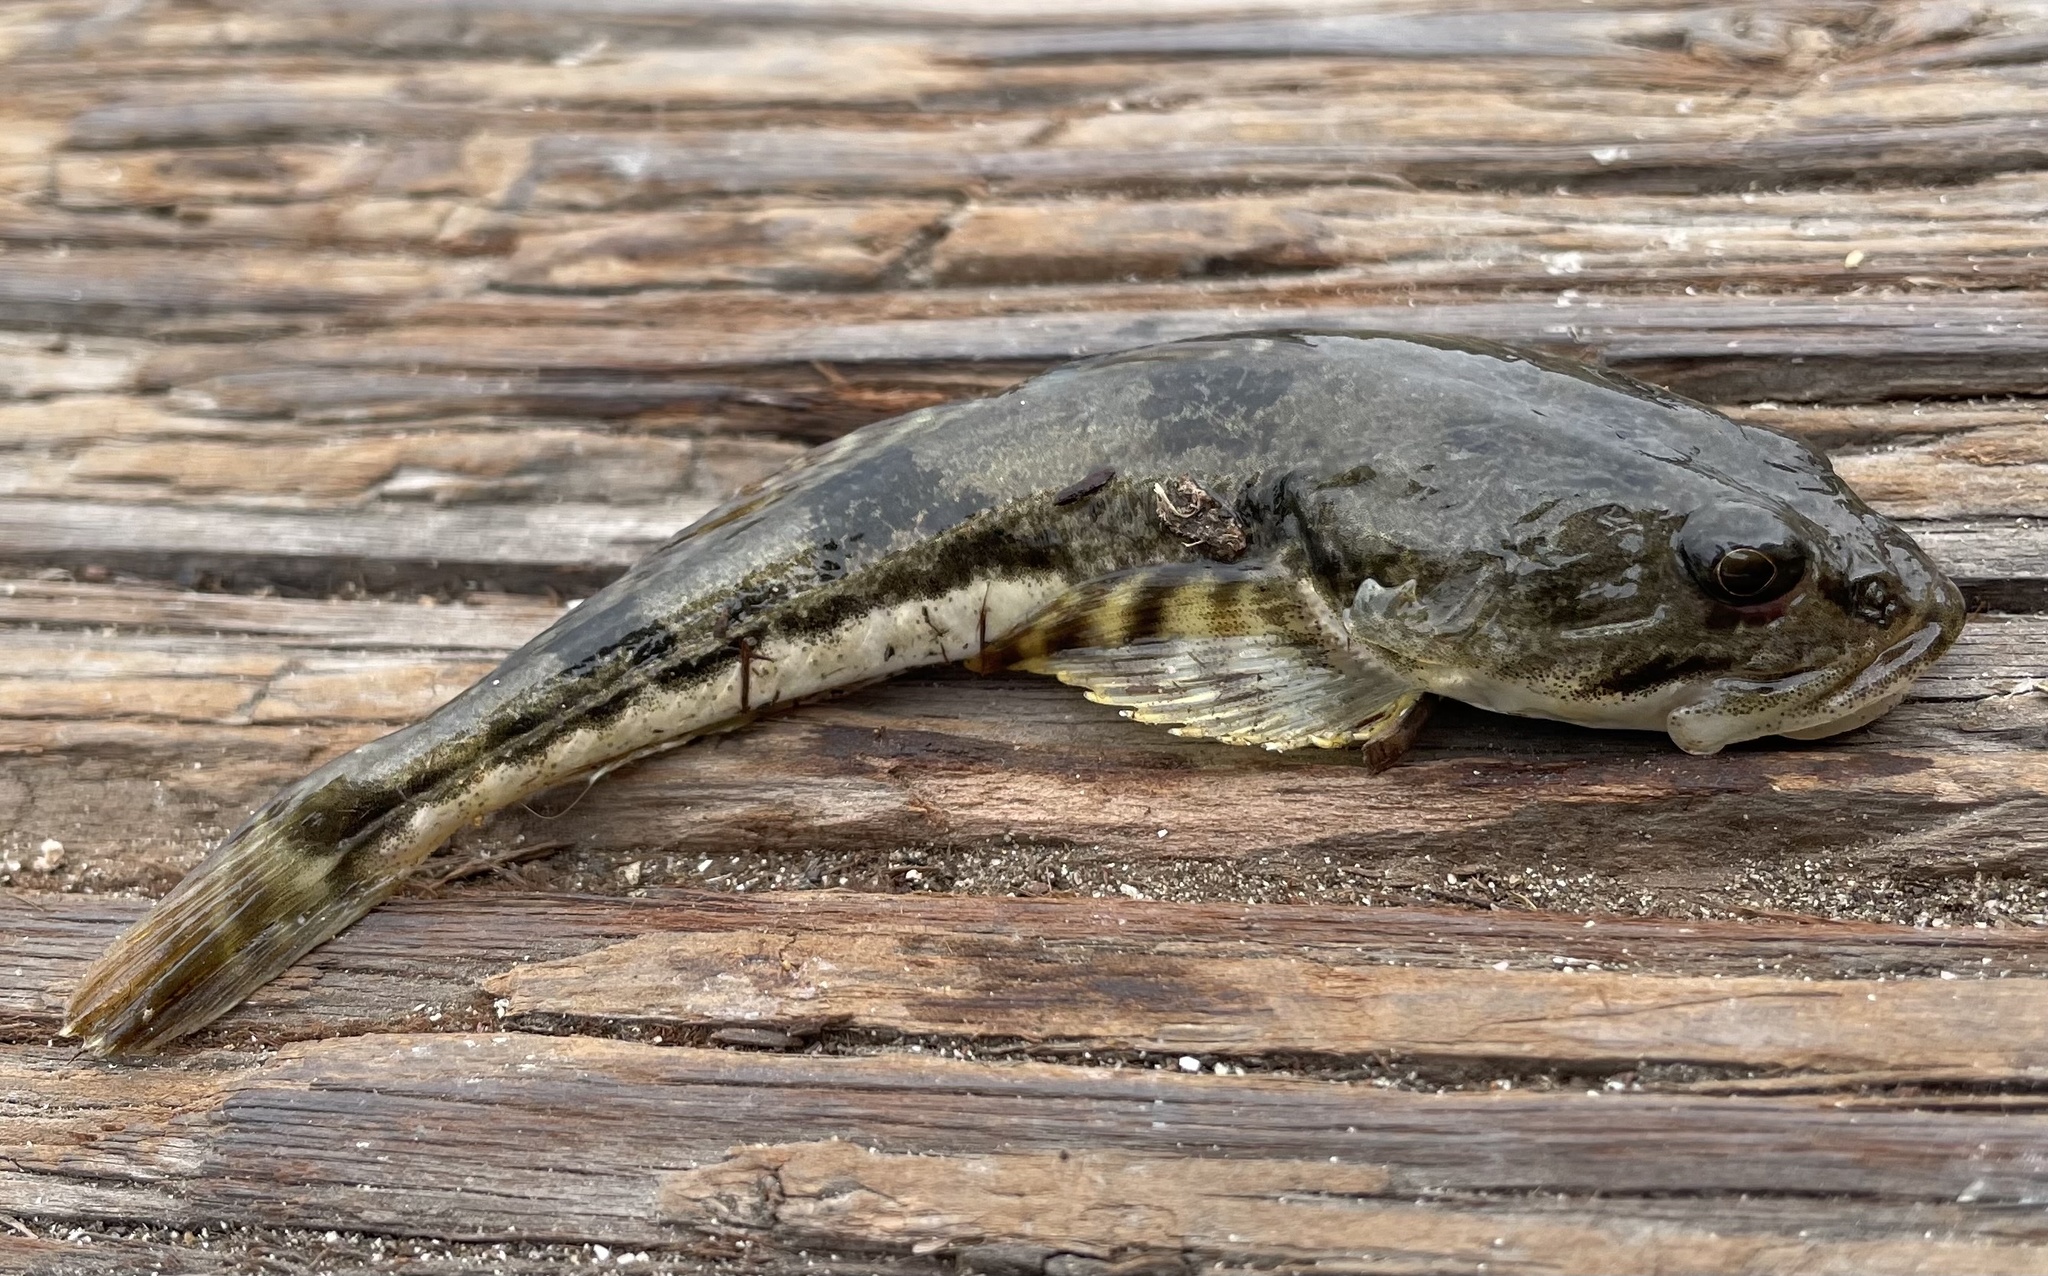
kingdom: Animalia
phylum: Chordata
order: Scorpaeniformes
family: Cottidae
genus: Leptocottus
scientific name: Leptocottus armatus
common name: Pacific staghorn sculpin
